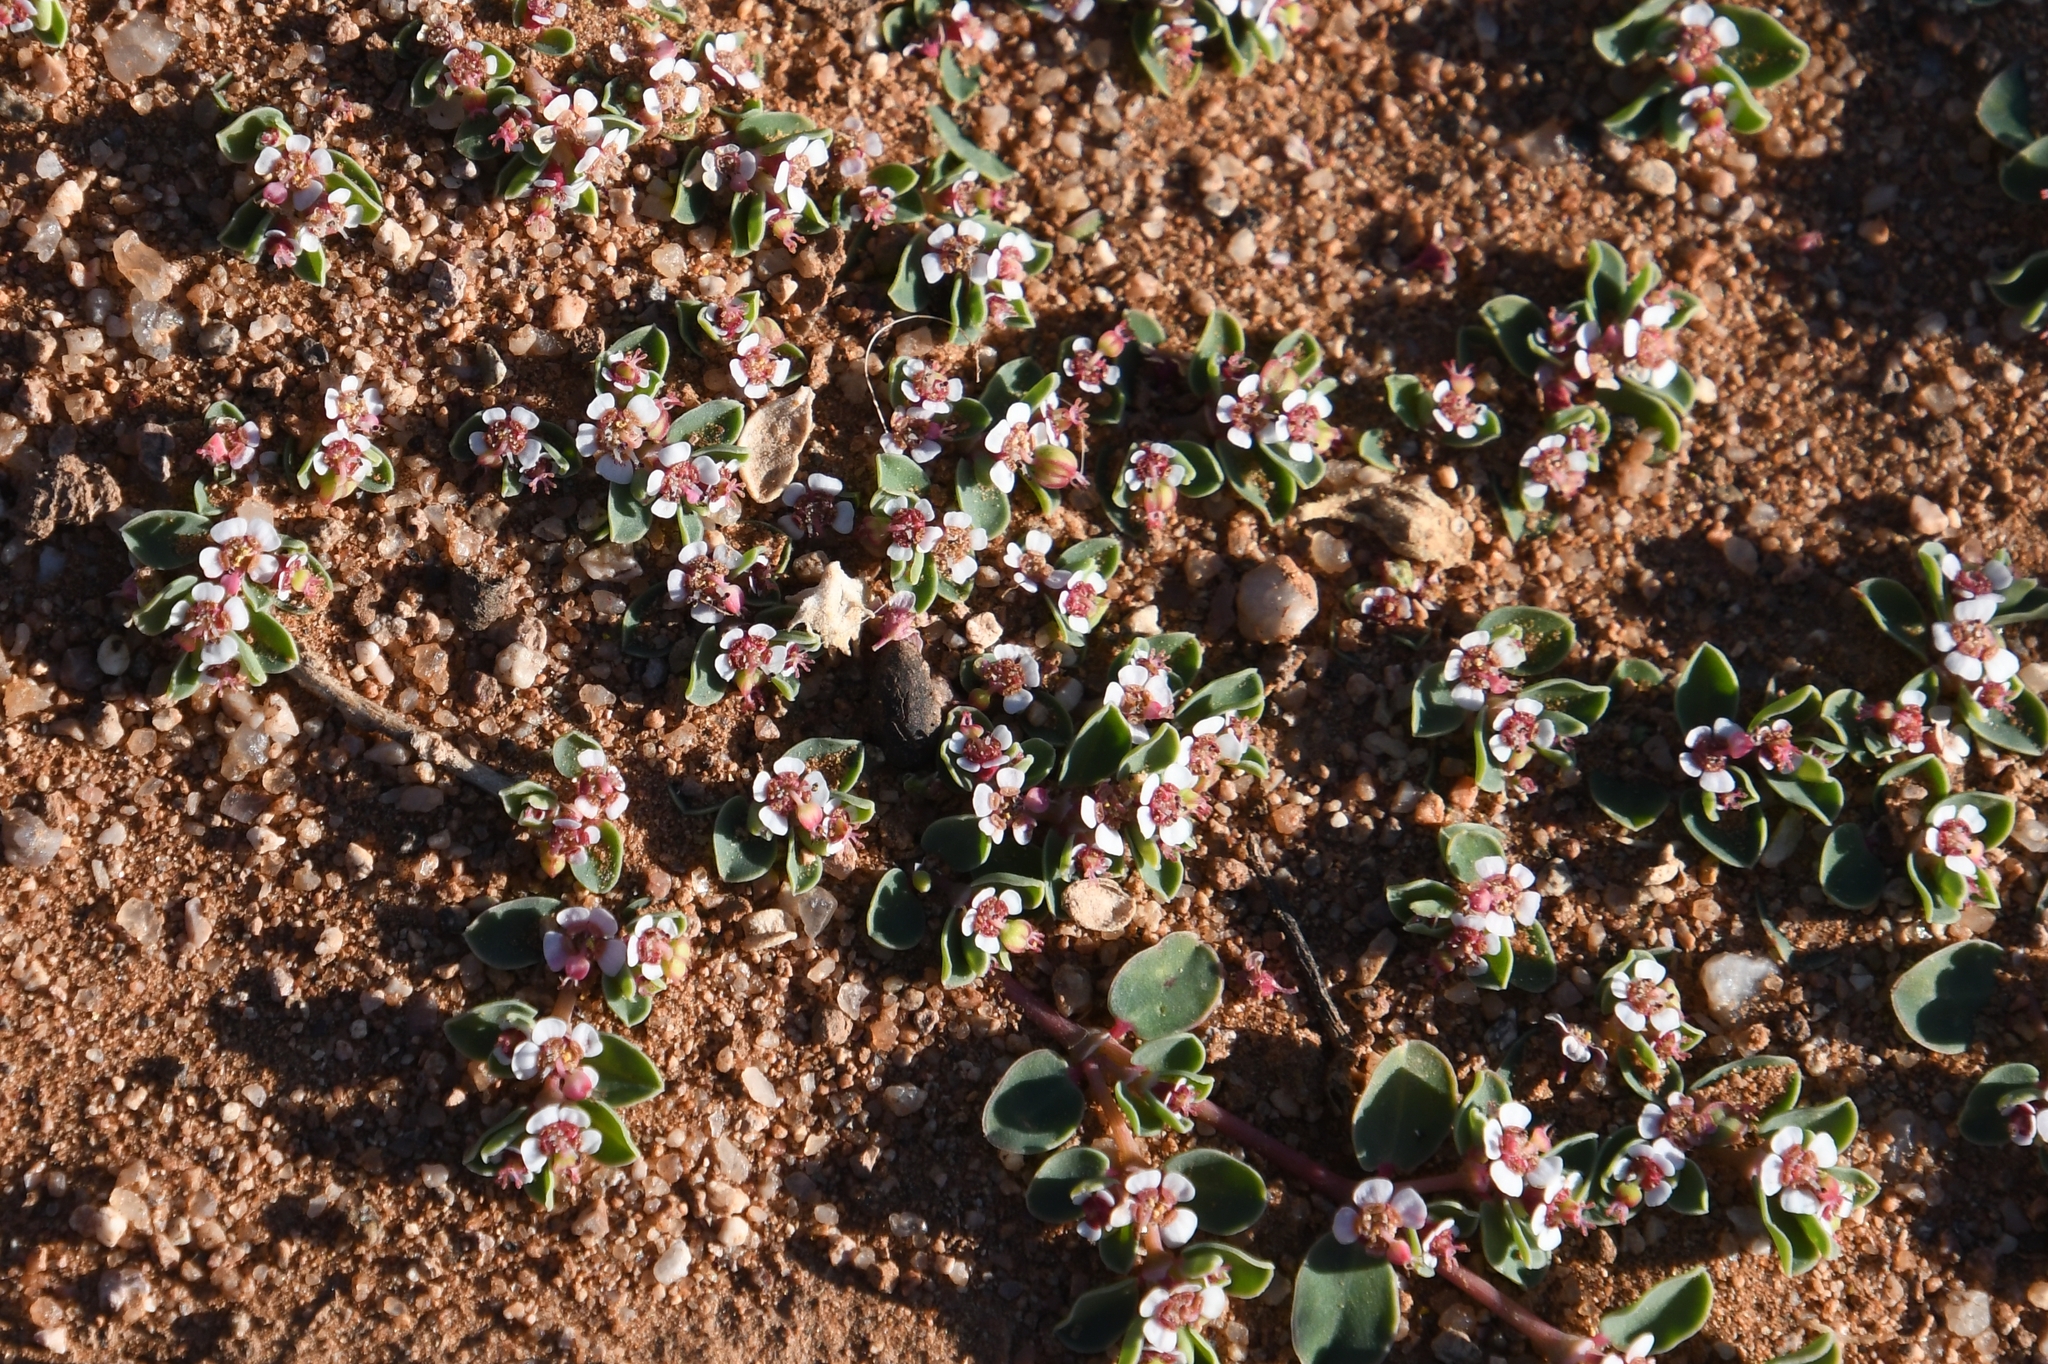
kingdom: Plantae
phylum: Tracheophyta
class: Magnoliopsida
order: Malpighiales
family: Euphorbiaceae
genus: Euphorbia
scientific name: Euphorbia albomarginata
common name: Whitemargin sandmat
